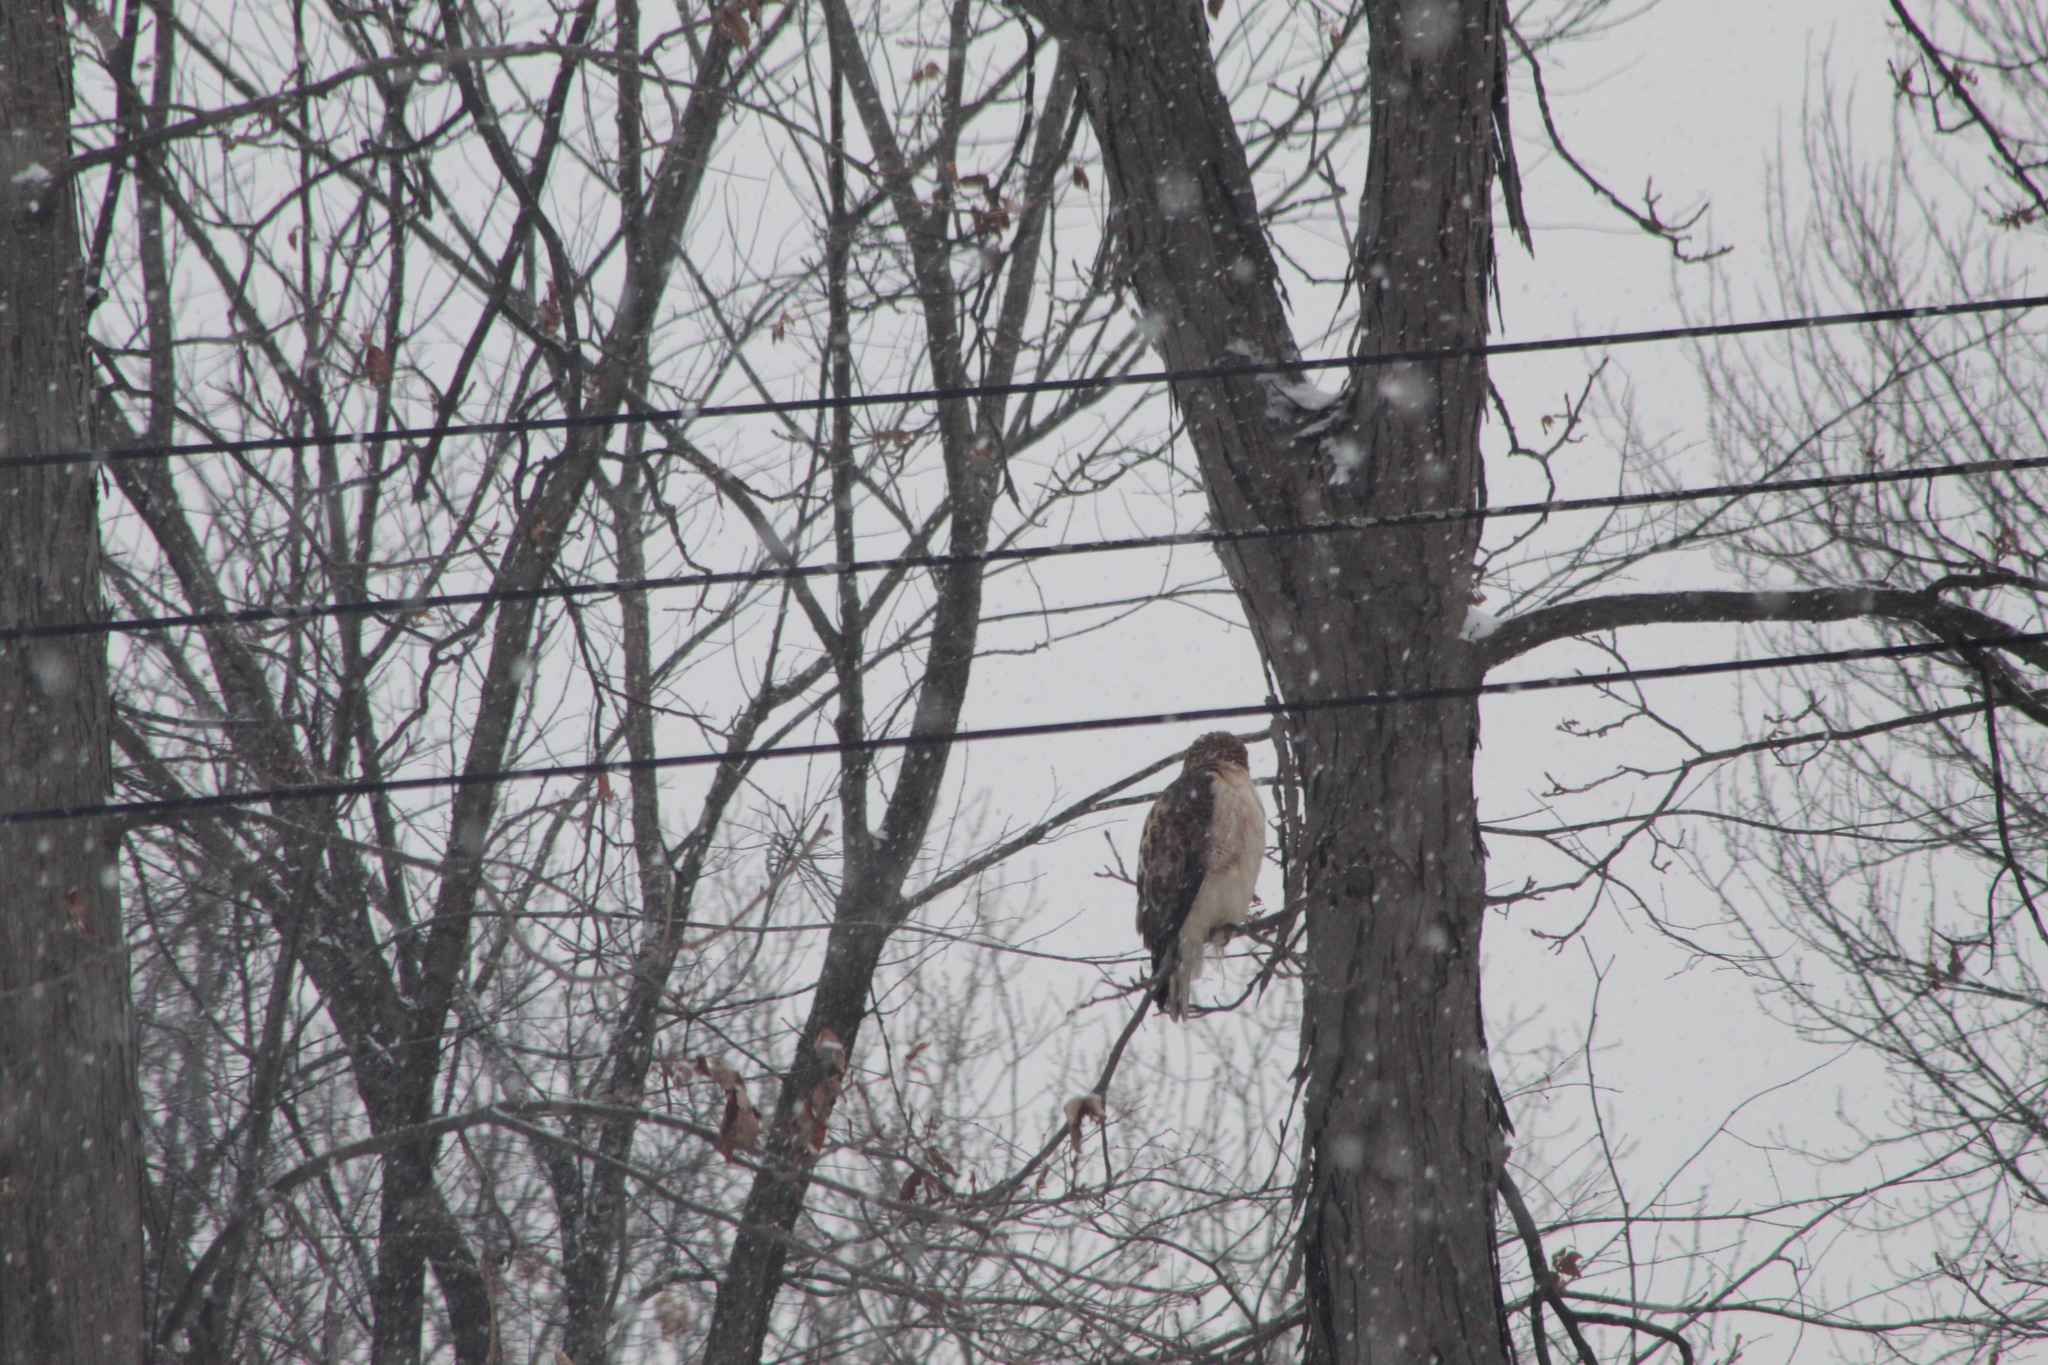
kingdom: Animalia
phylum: Chordata
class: Aves
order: Accipitriformes
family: Accipitridae
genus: Buteo
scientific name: Buteo jamaicensis
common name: Red-tailed hawk
